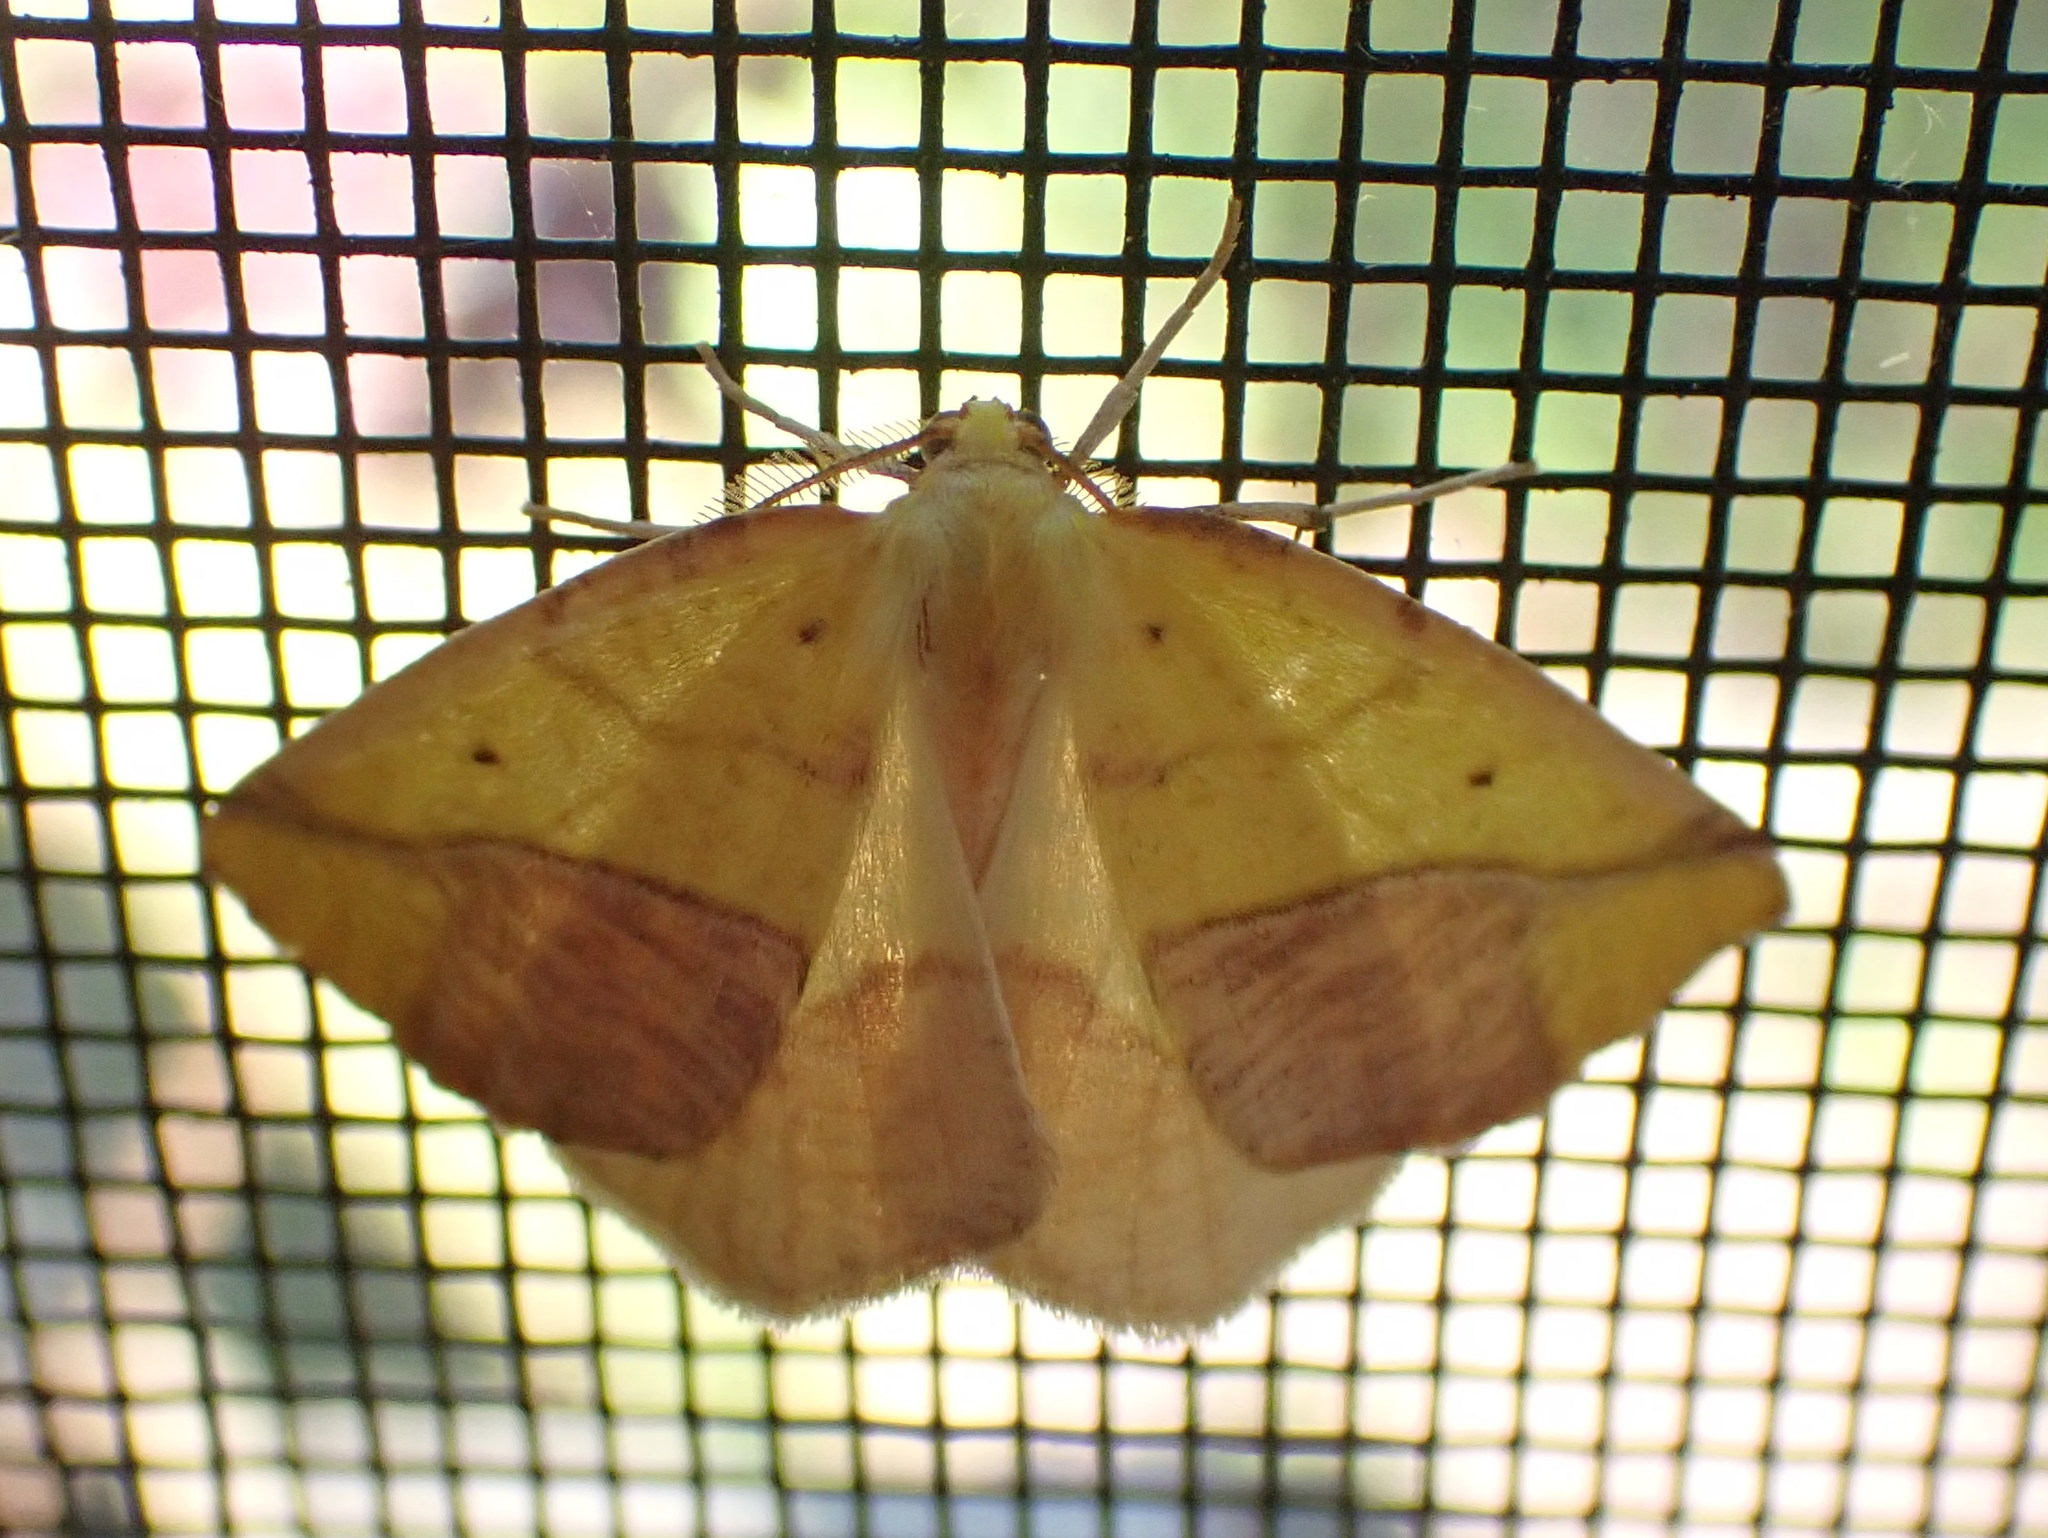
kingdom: Animalia
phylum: Arthropoda
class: Insecta
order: Lepidoptera
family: Geometridae
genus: Sicya
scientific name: Sicya macularia
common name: Sharp-lined yellow
